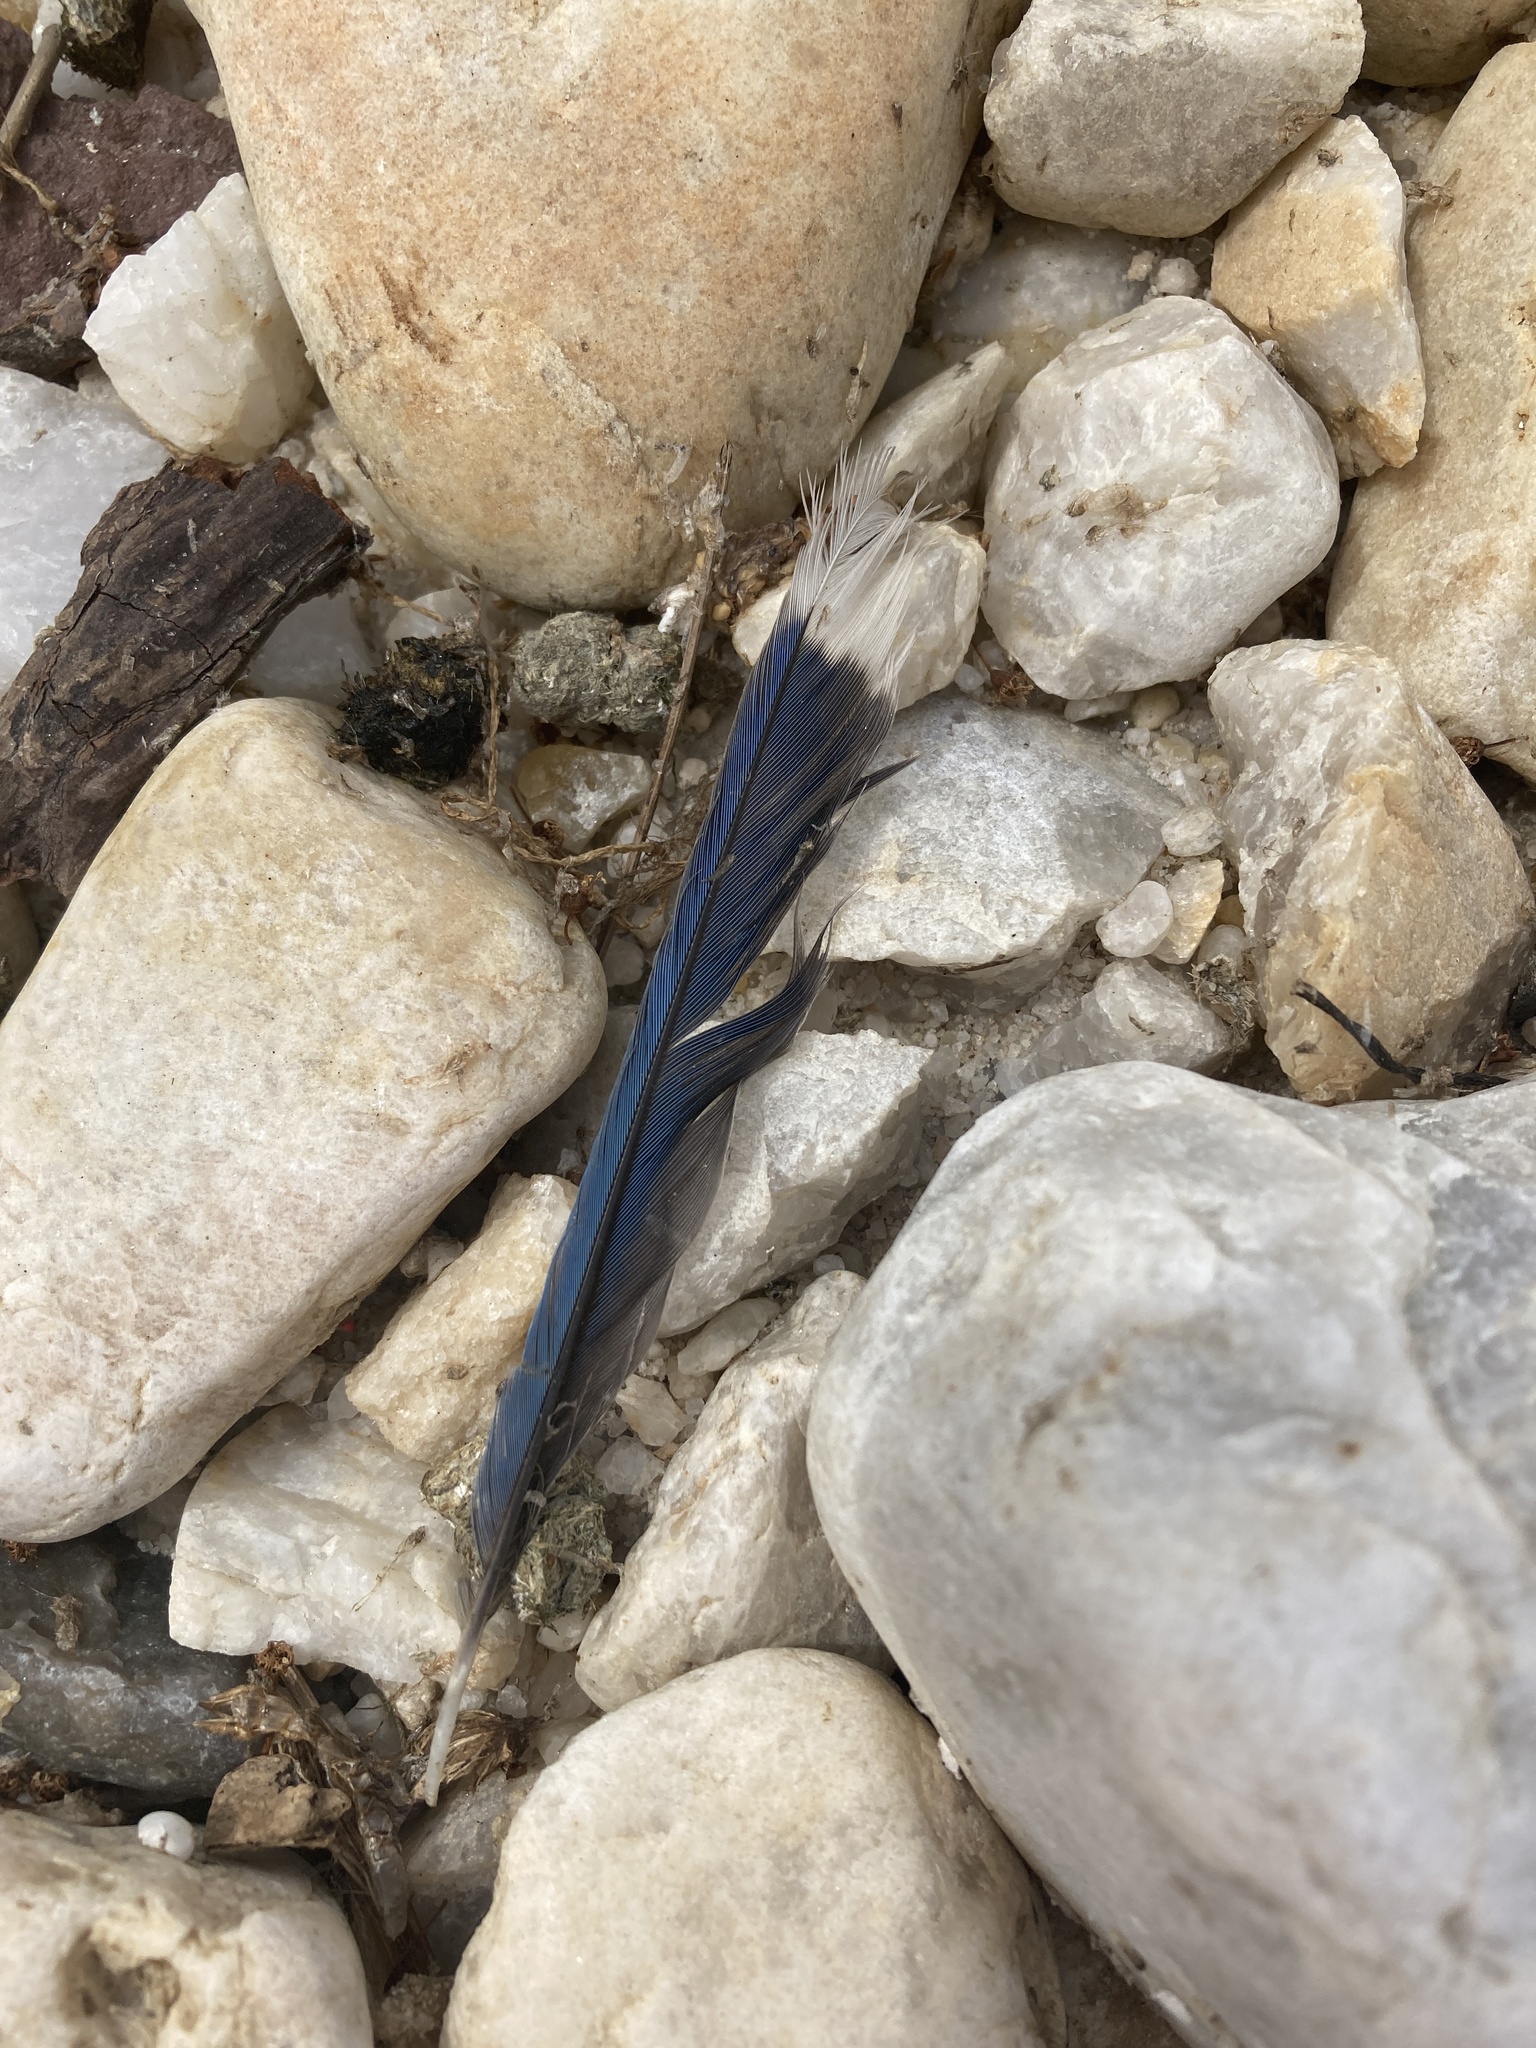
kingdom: Animalia
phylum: Chordata
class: Aves
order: Passeriformes
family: Corvidae
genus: Cyanocitta
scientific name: Cyanocitta cristata
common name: Blue jay
